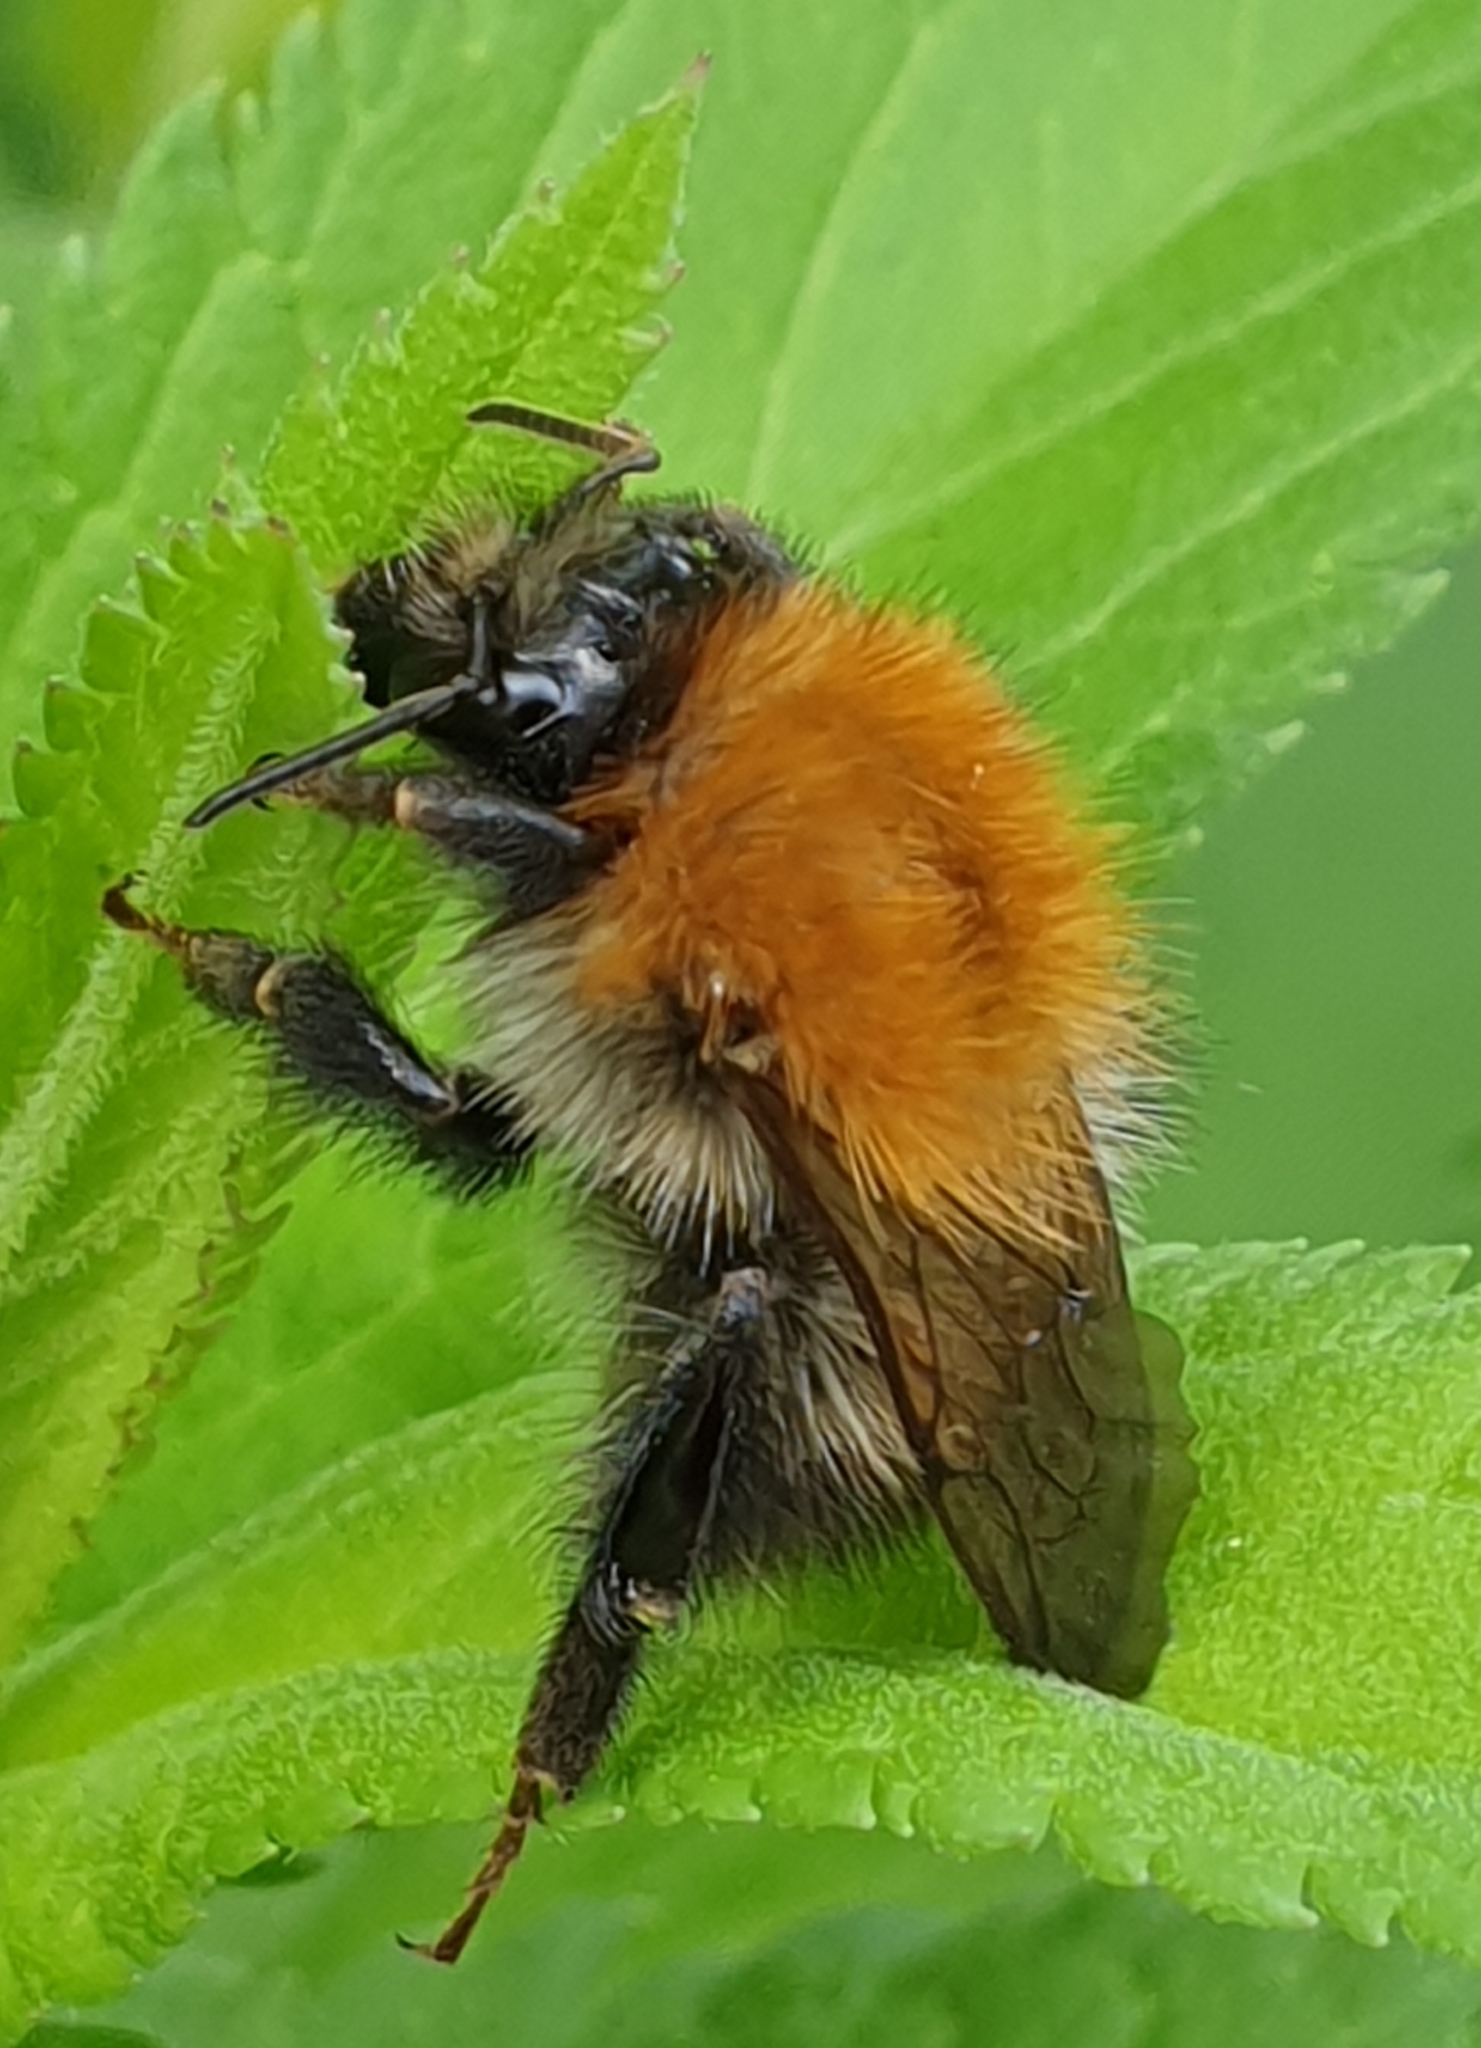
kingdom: Animalia
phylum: Arthropoda
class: Insecta
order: Hymenoptera
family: Apidae
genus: Bombus
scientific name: Bombus pascuorum
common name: Common carder bee
